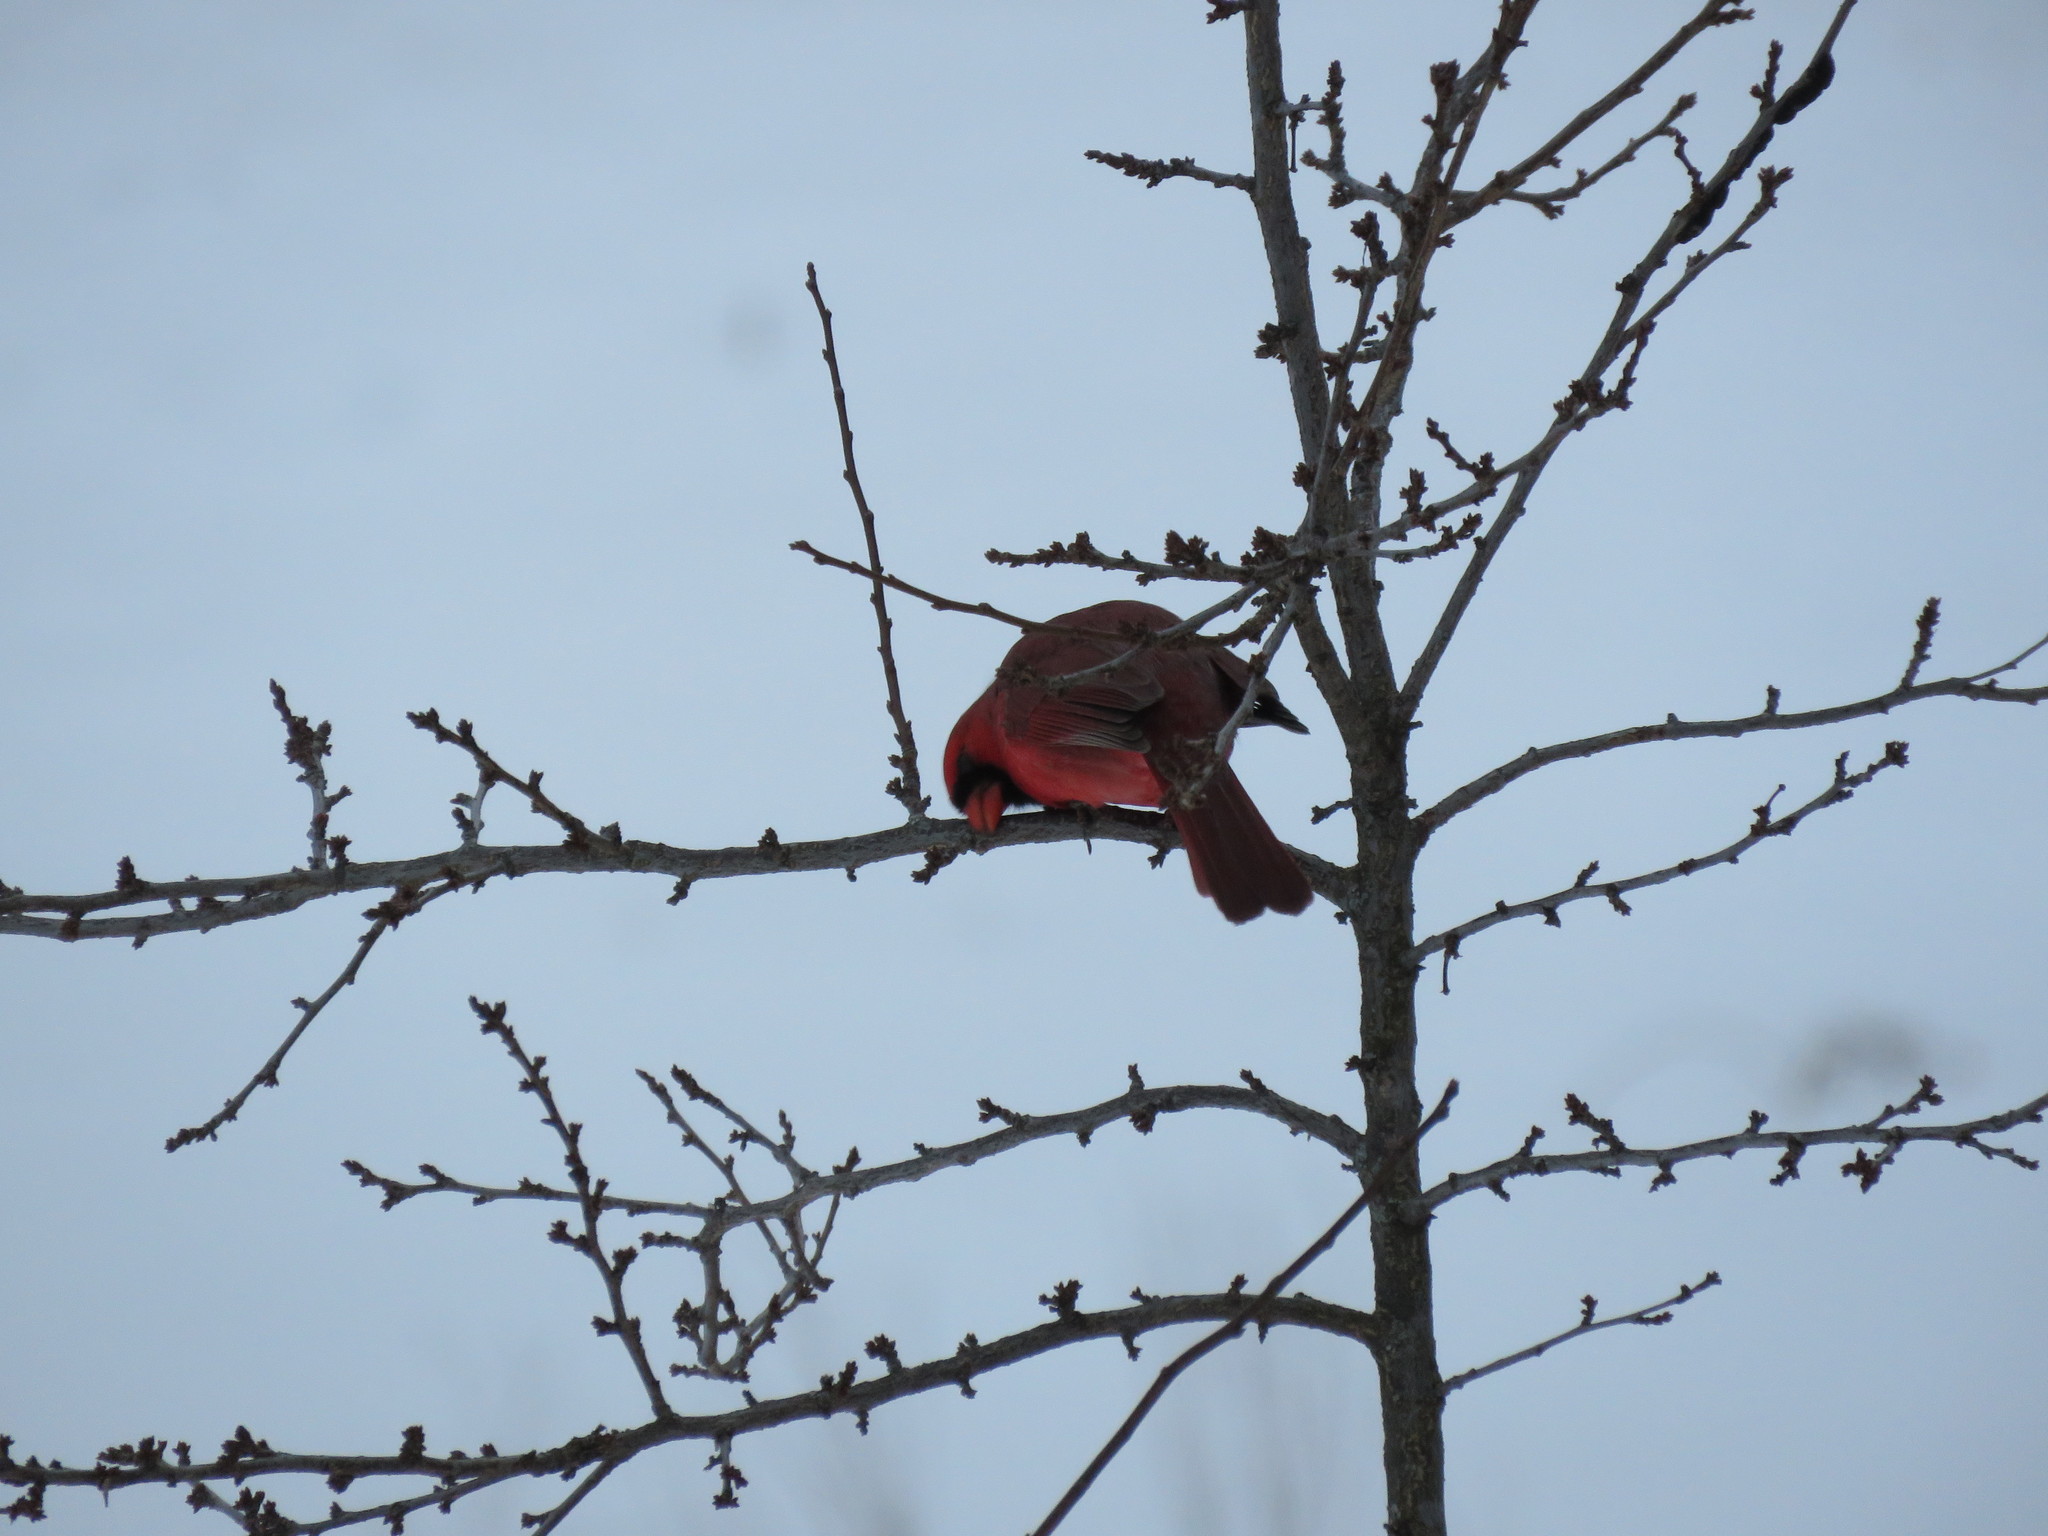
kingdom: Animalia
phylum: Chordata
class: Aves
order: Passeriformes
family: Cardinalidae
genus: Cardinalis
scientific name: Cardinalis cardinalis
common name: Northern cardinal
